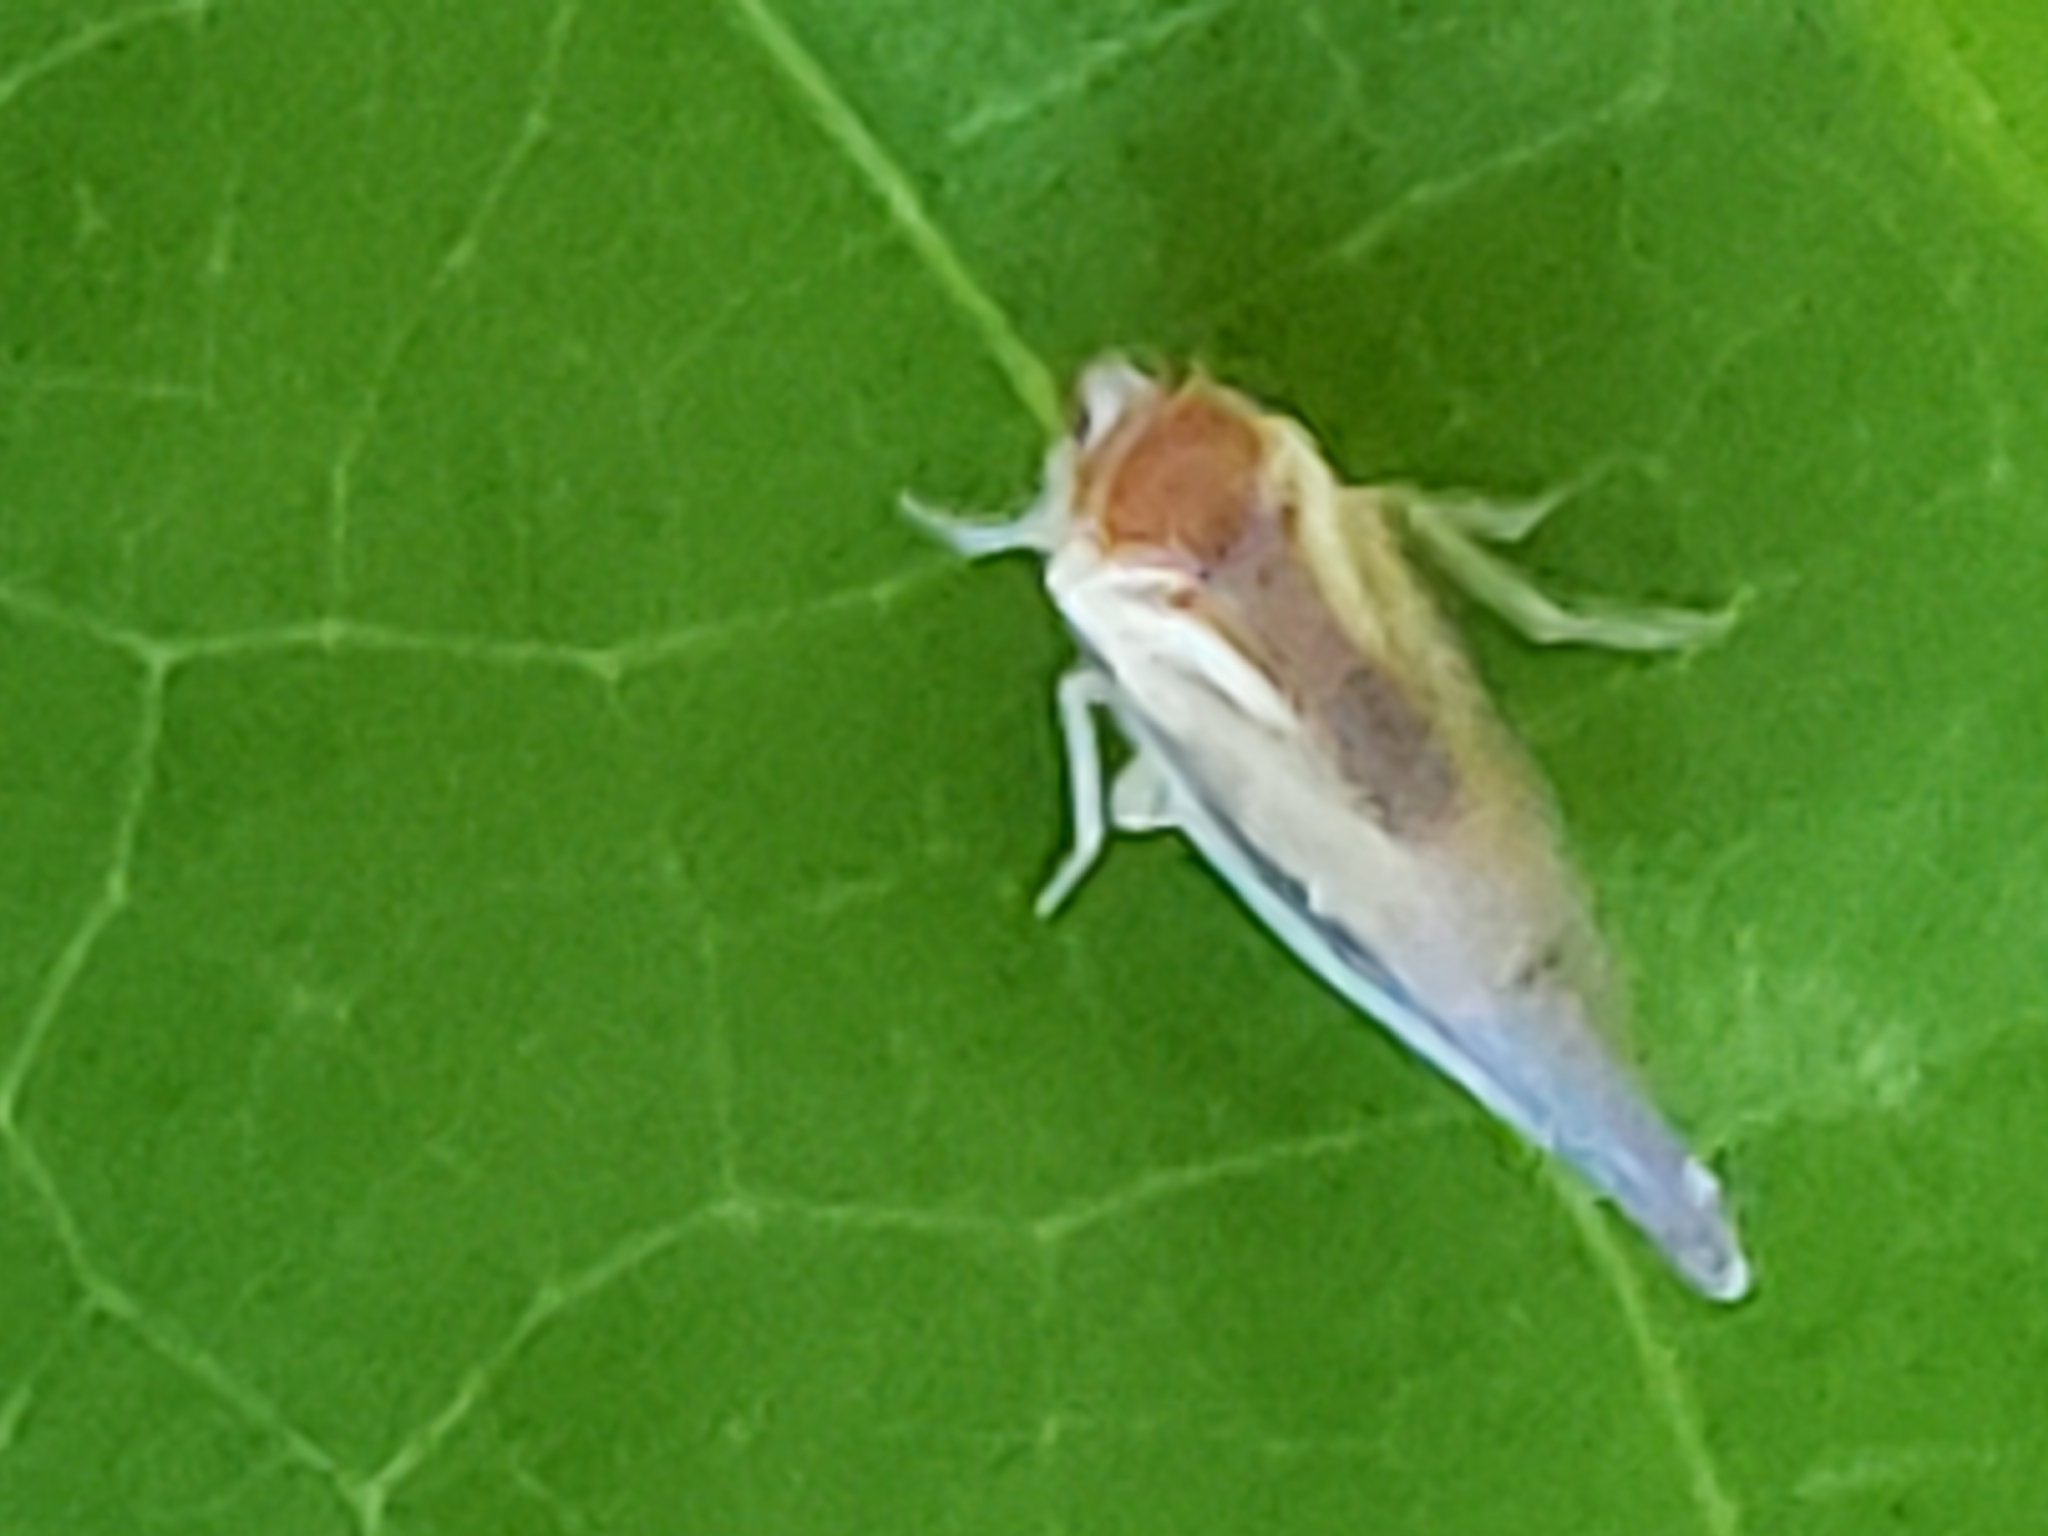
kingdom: Animalia
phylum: Arthropoda
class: Insecta
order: Hemiptera
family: Derbidae
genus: Omolicna
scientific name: Omolicna uhleri
